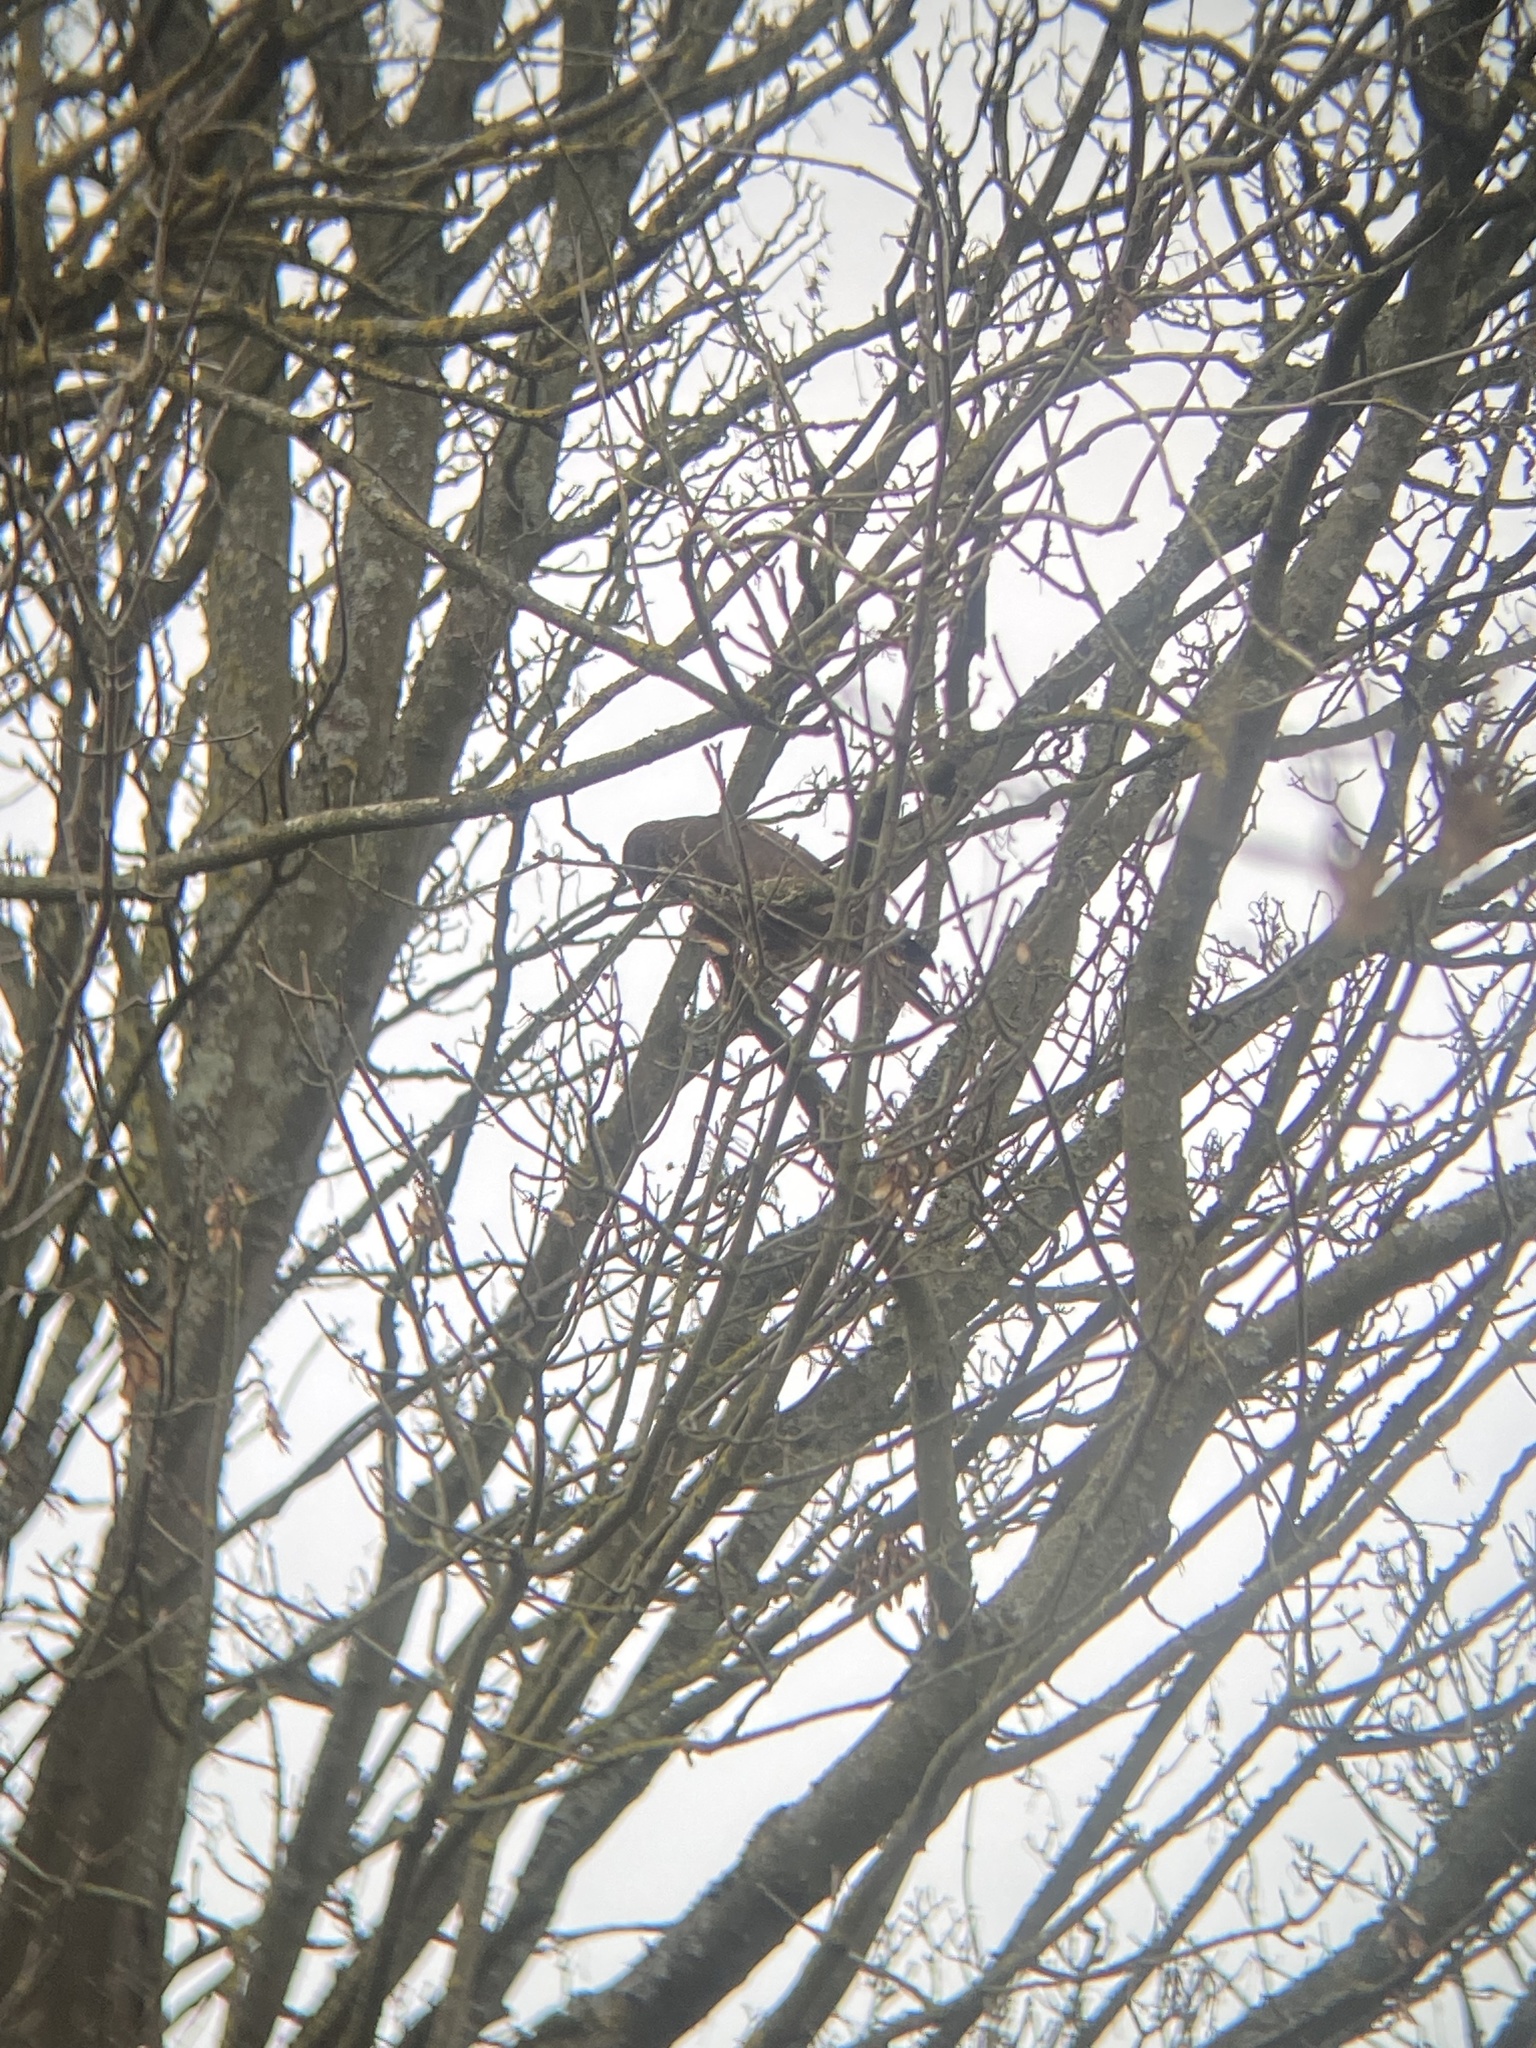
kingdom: Animalia
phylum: Chordata
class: Aves
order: Accipitriformes
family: Accipitridae
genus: Buteo
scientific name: Buteo buteo
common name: Common buzzard
